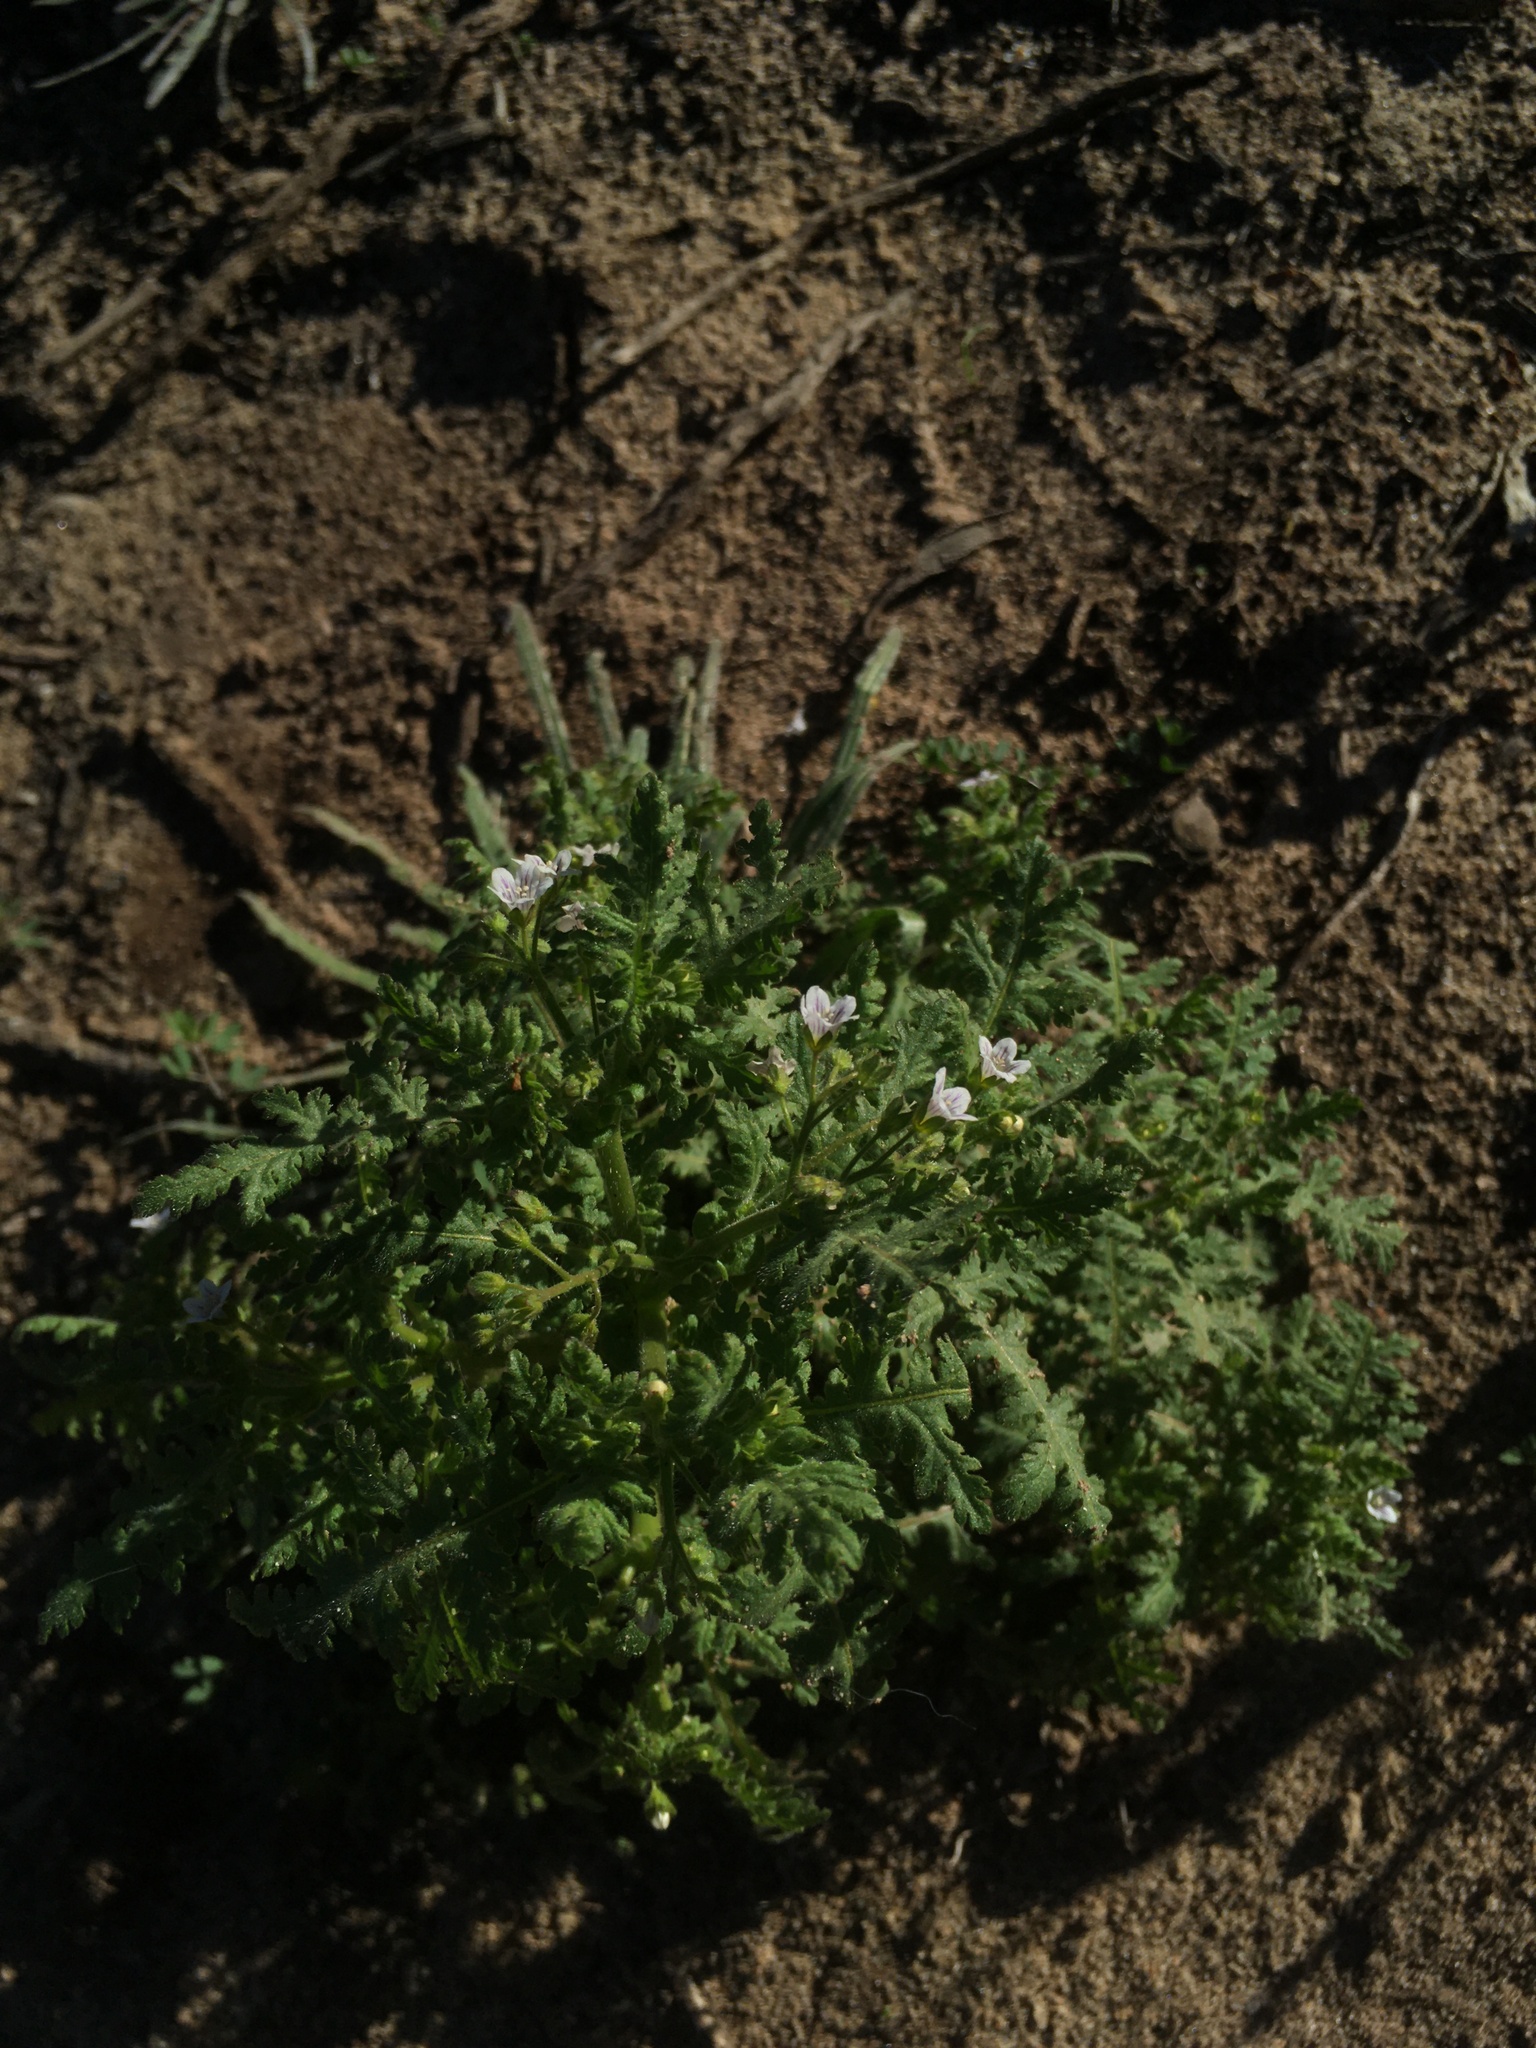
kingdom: Plantae
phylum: Tracheophyta
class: Magnoliopsida
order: Boraginales
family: Hydrophyllaceae
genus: Eucrypta
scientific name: Eucrypta chrysanthemifolia
